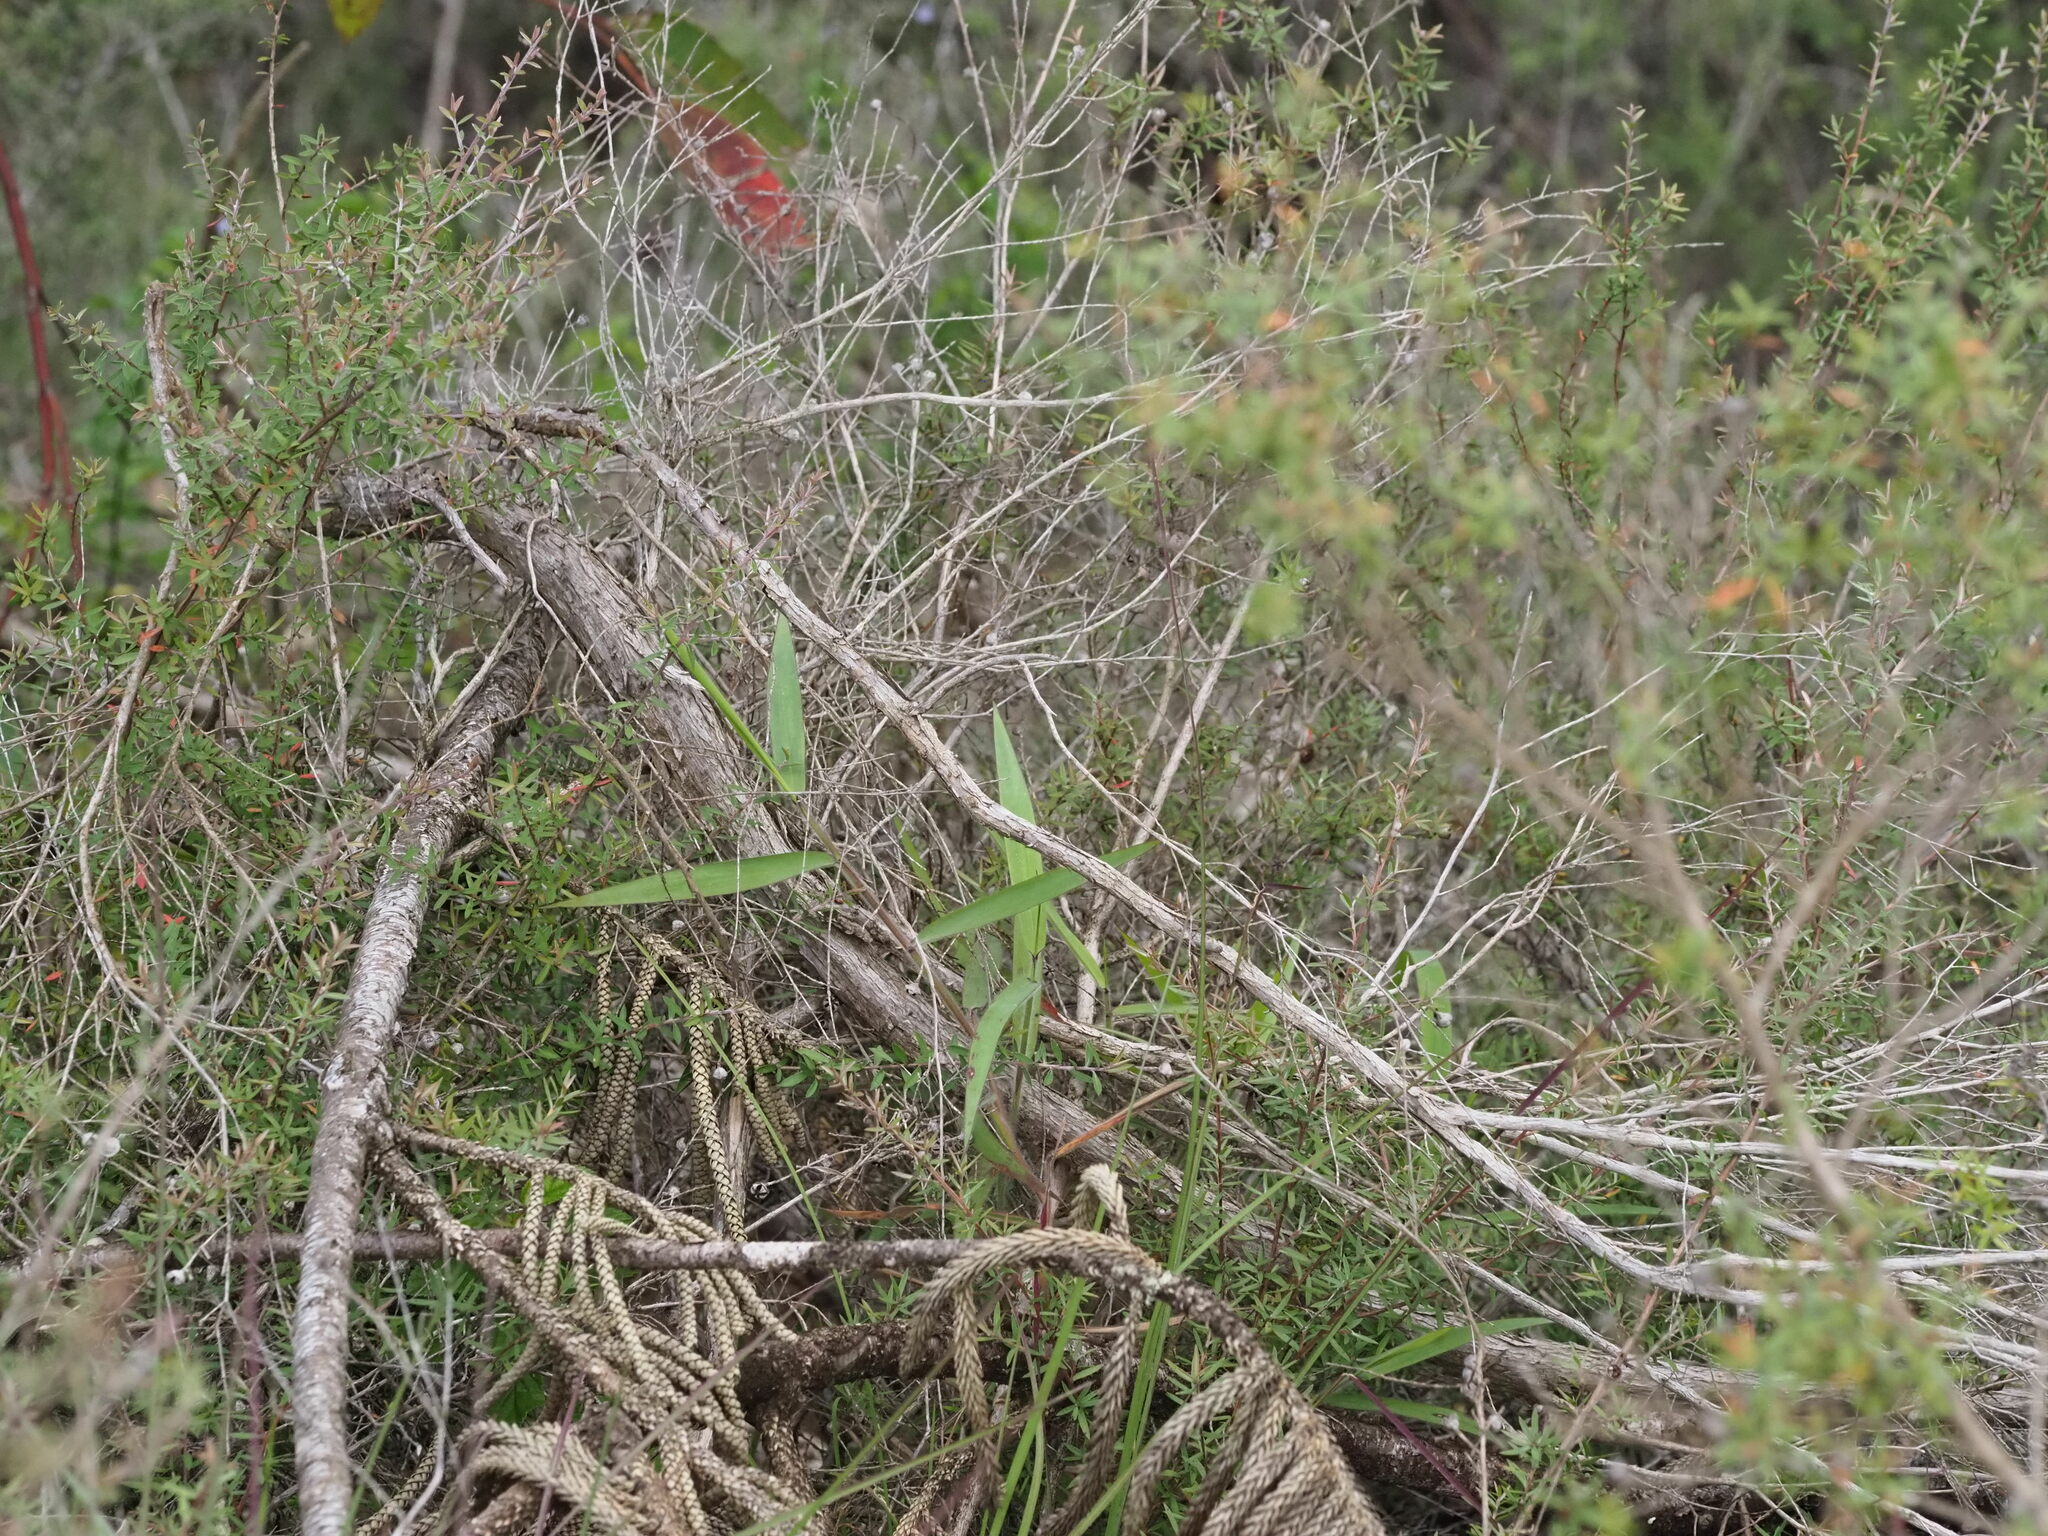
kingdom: Plantae
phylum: Tracheophyta
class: Liliopsida
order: Poales
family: Poaceae
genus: Melinis
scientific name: Melinis minutiflora
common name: Molassesgrass
